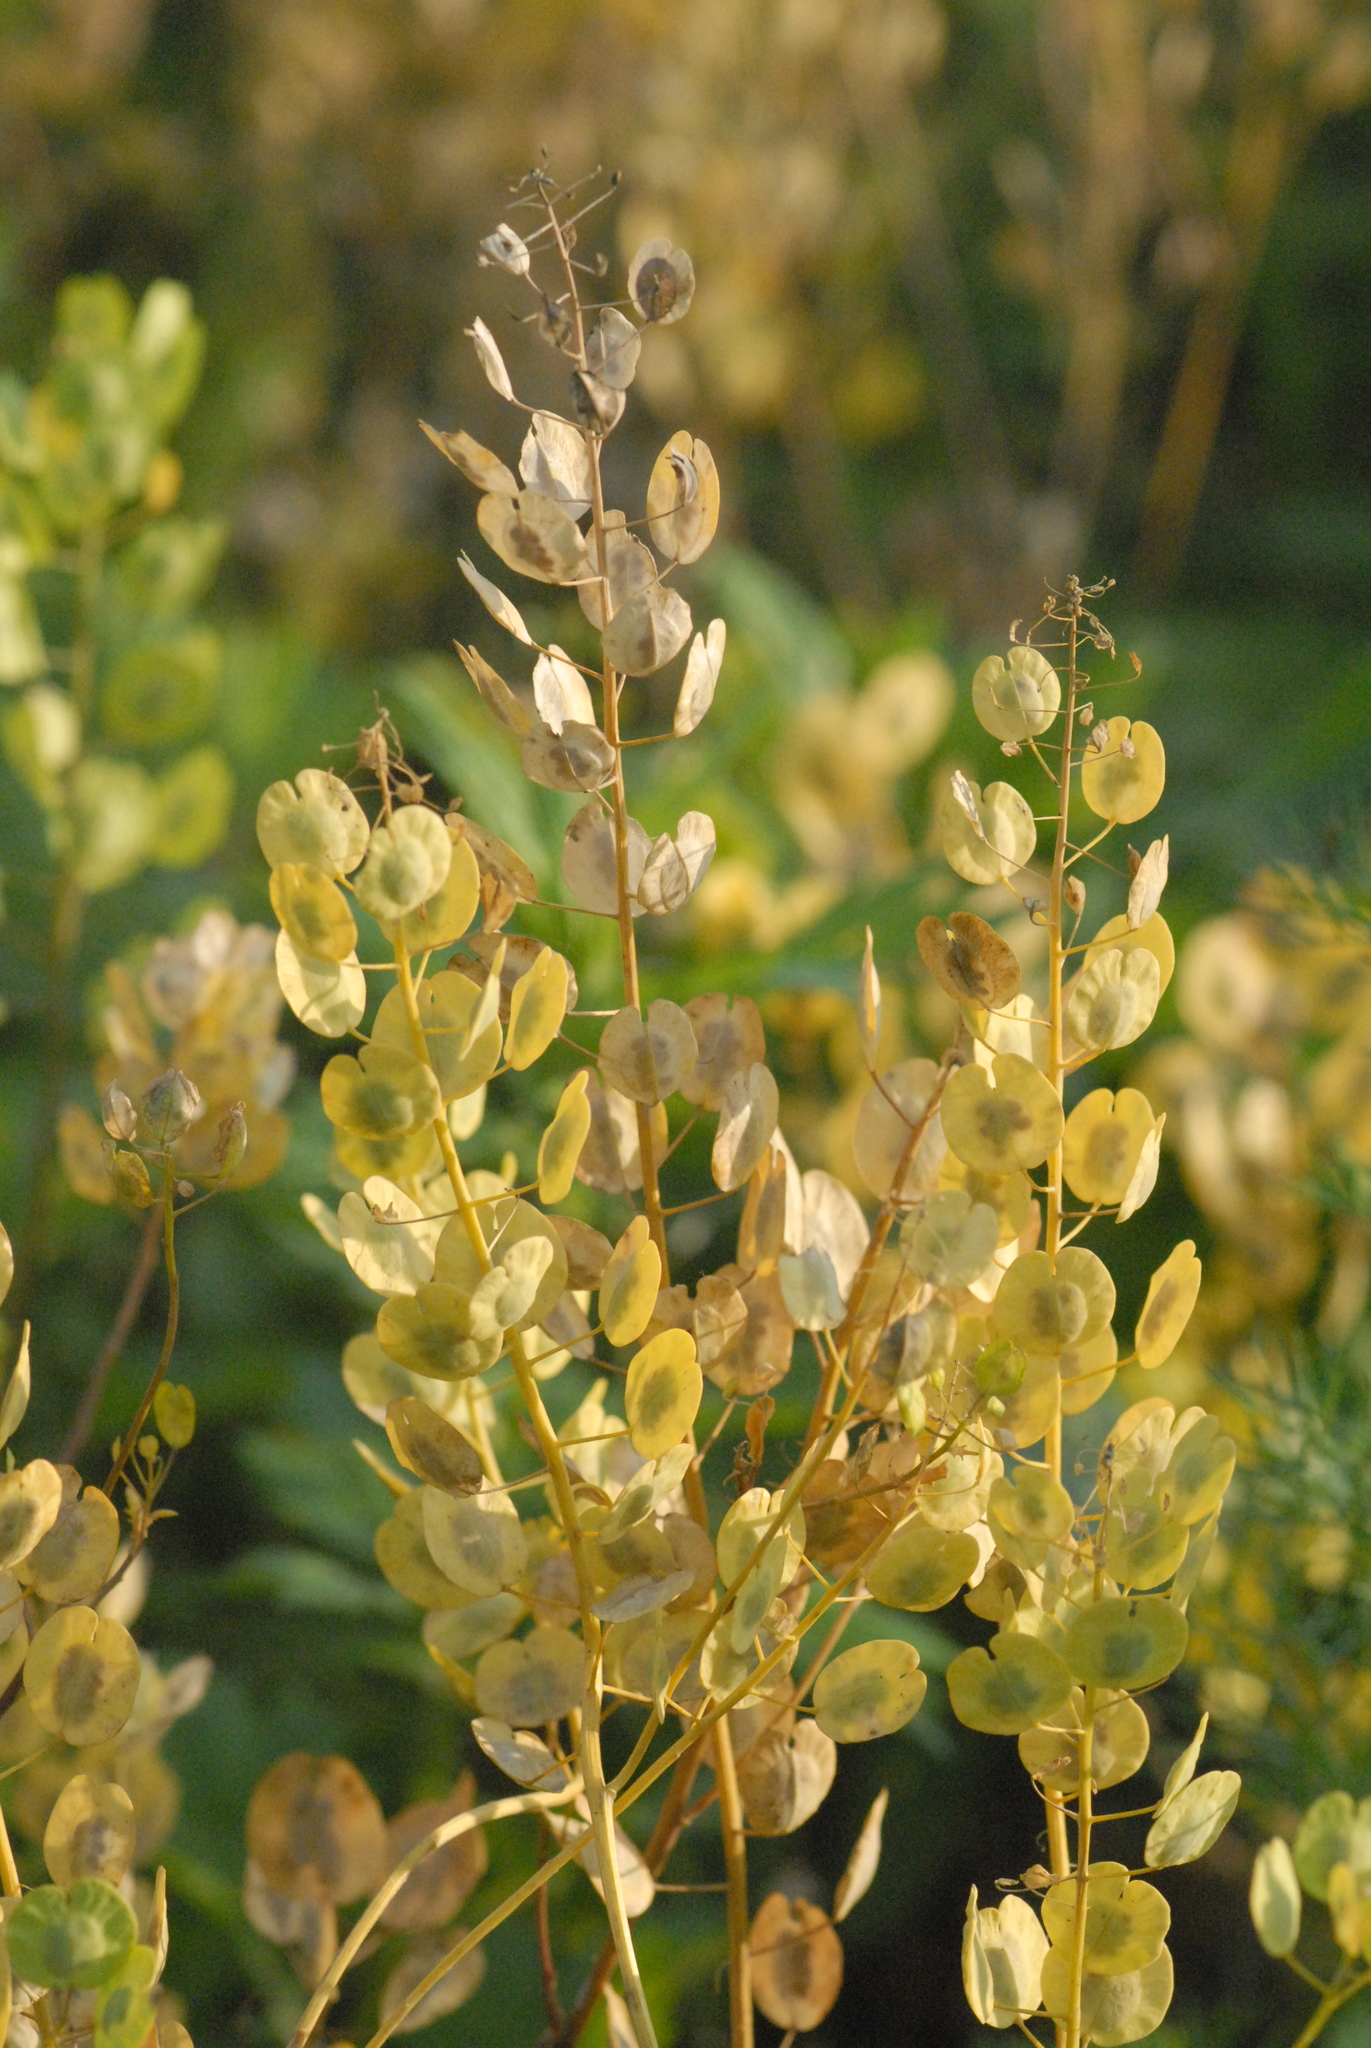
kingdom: Plantae
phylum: Tracheophyta
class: Magnoliopsida
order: Brassicales
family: Brassicaceae
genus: Thlaspi
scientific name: Thlaspi arvense
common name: Field pennycress
